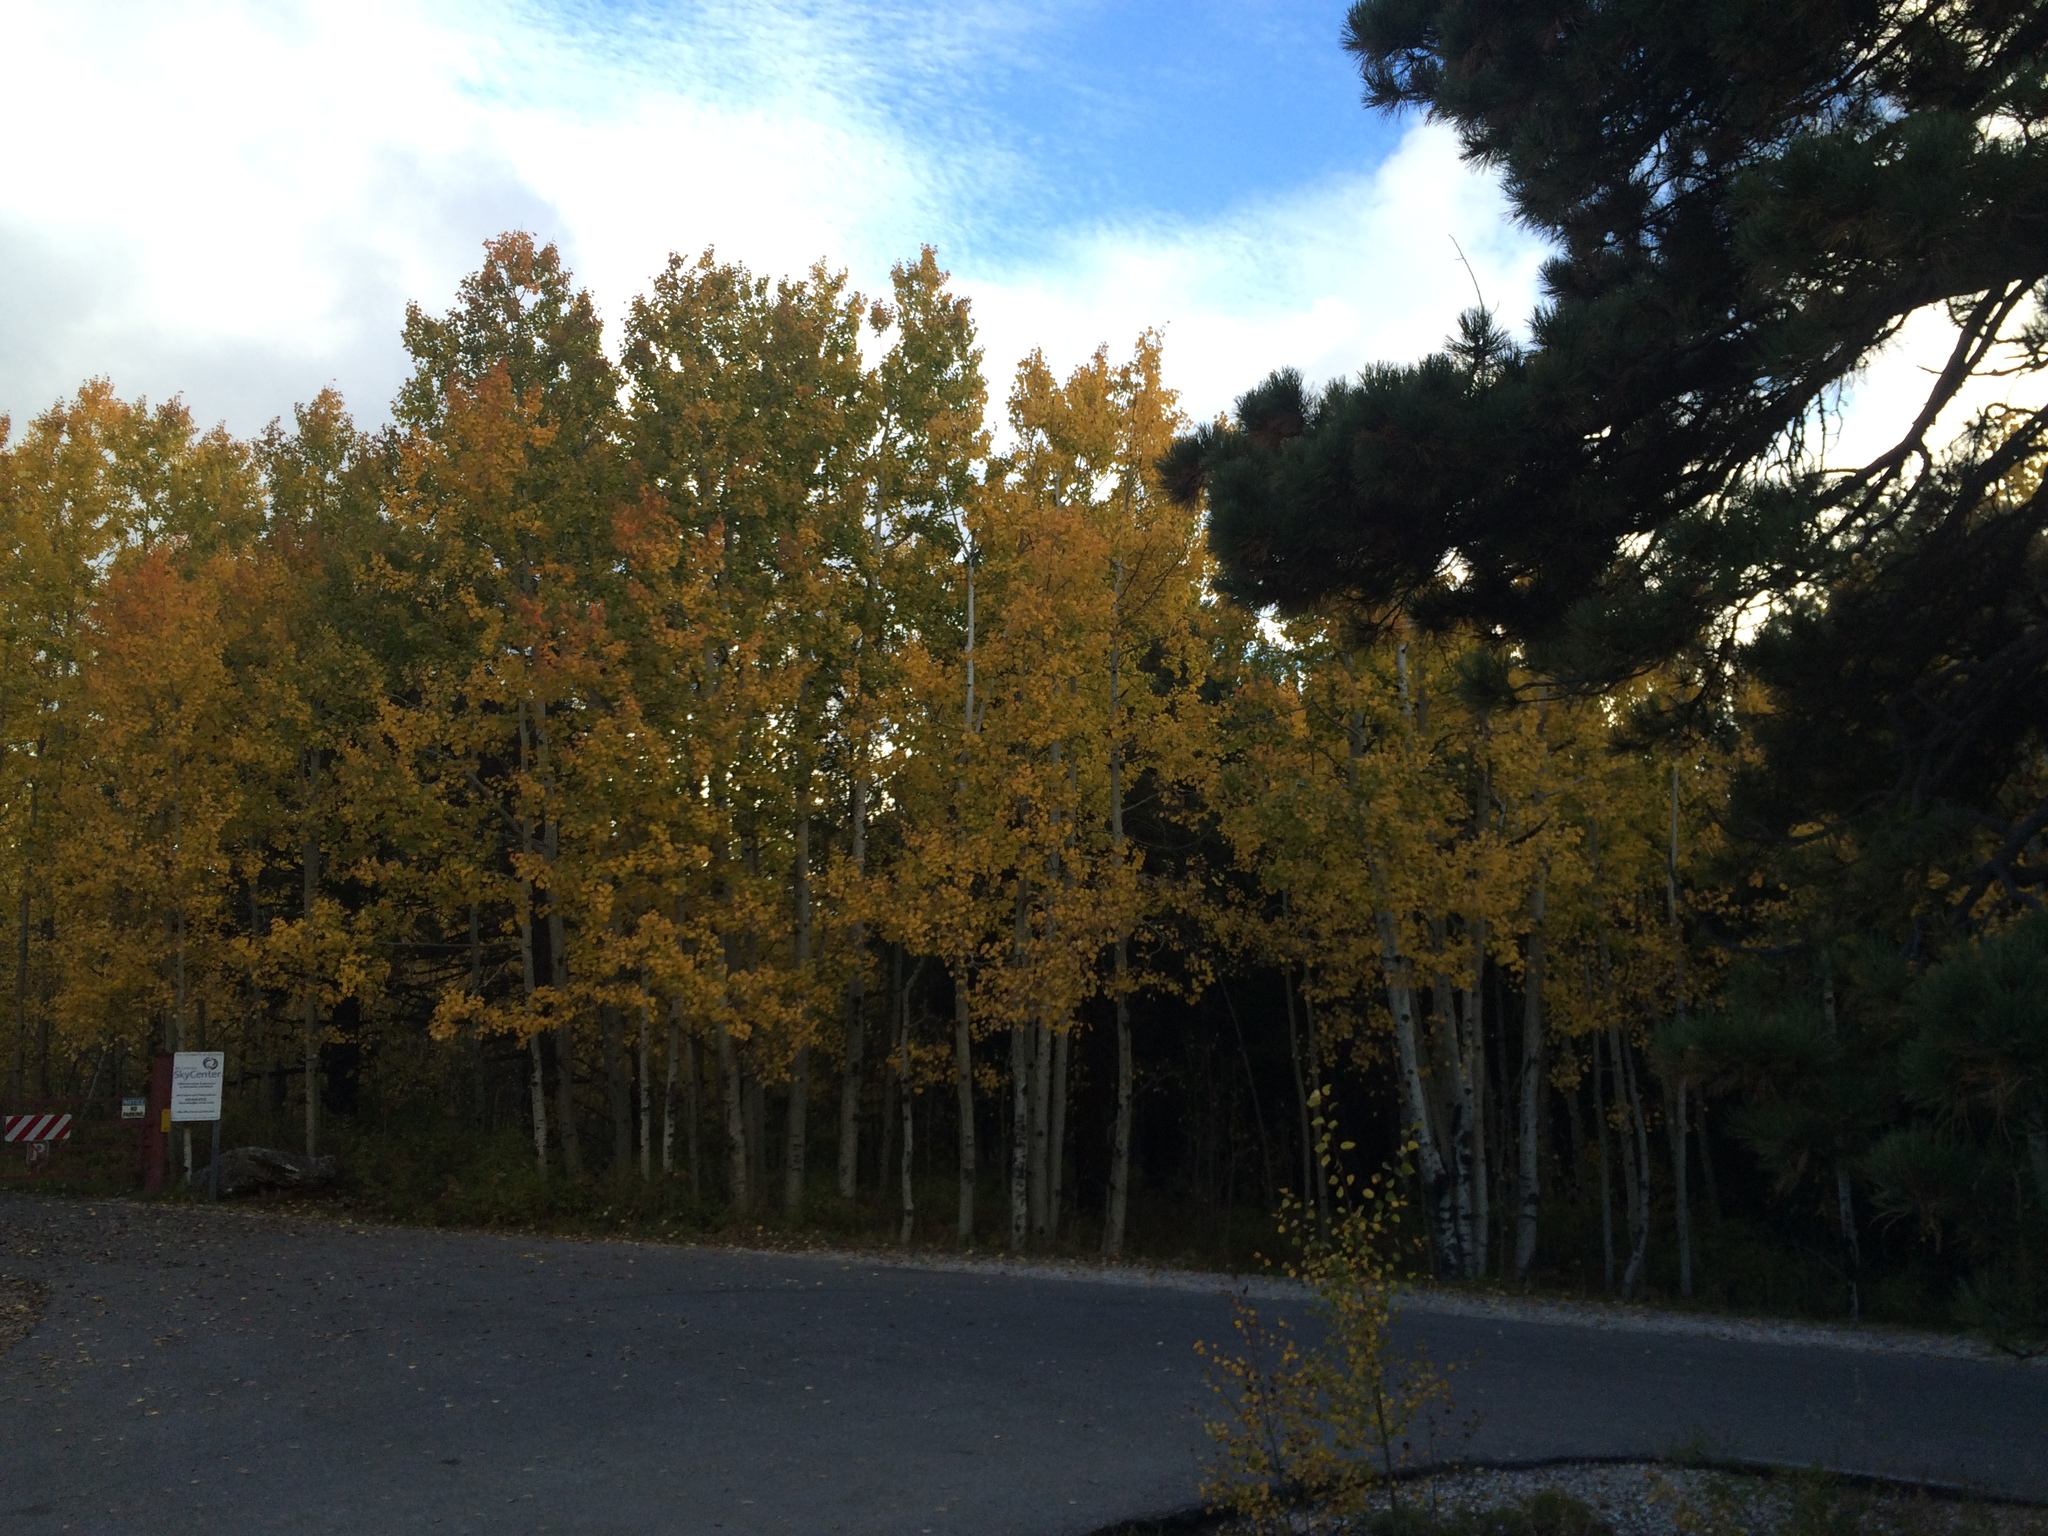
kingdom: Plantae
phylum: Tracheophyta
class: Magnoliopsida
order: Malpighiales
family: Salicaceae
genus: Populus
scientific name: Populus tremuloides
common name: Quaking aspen
